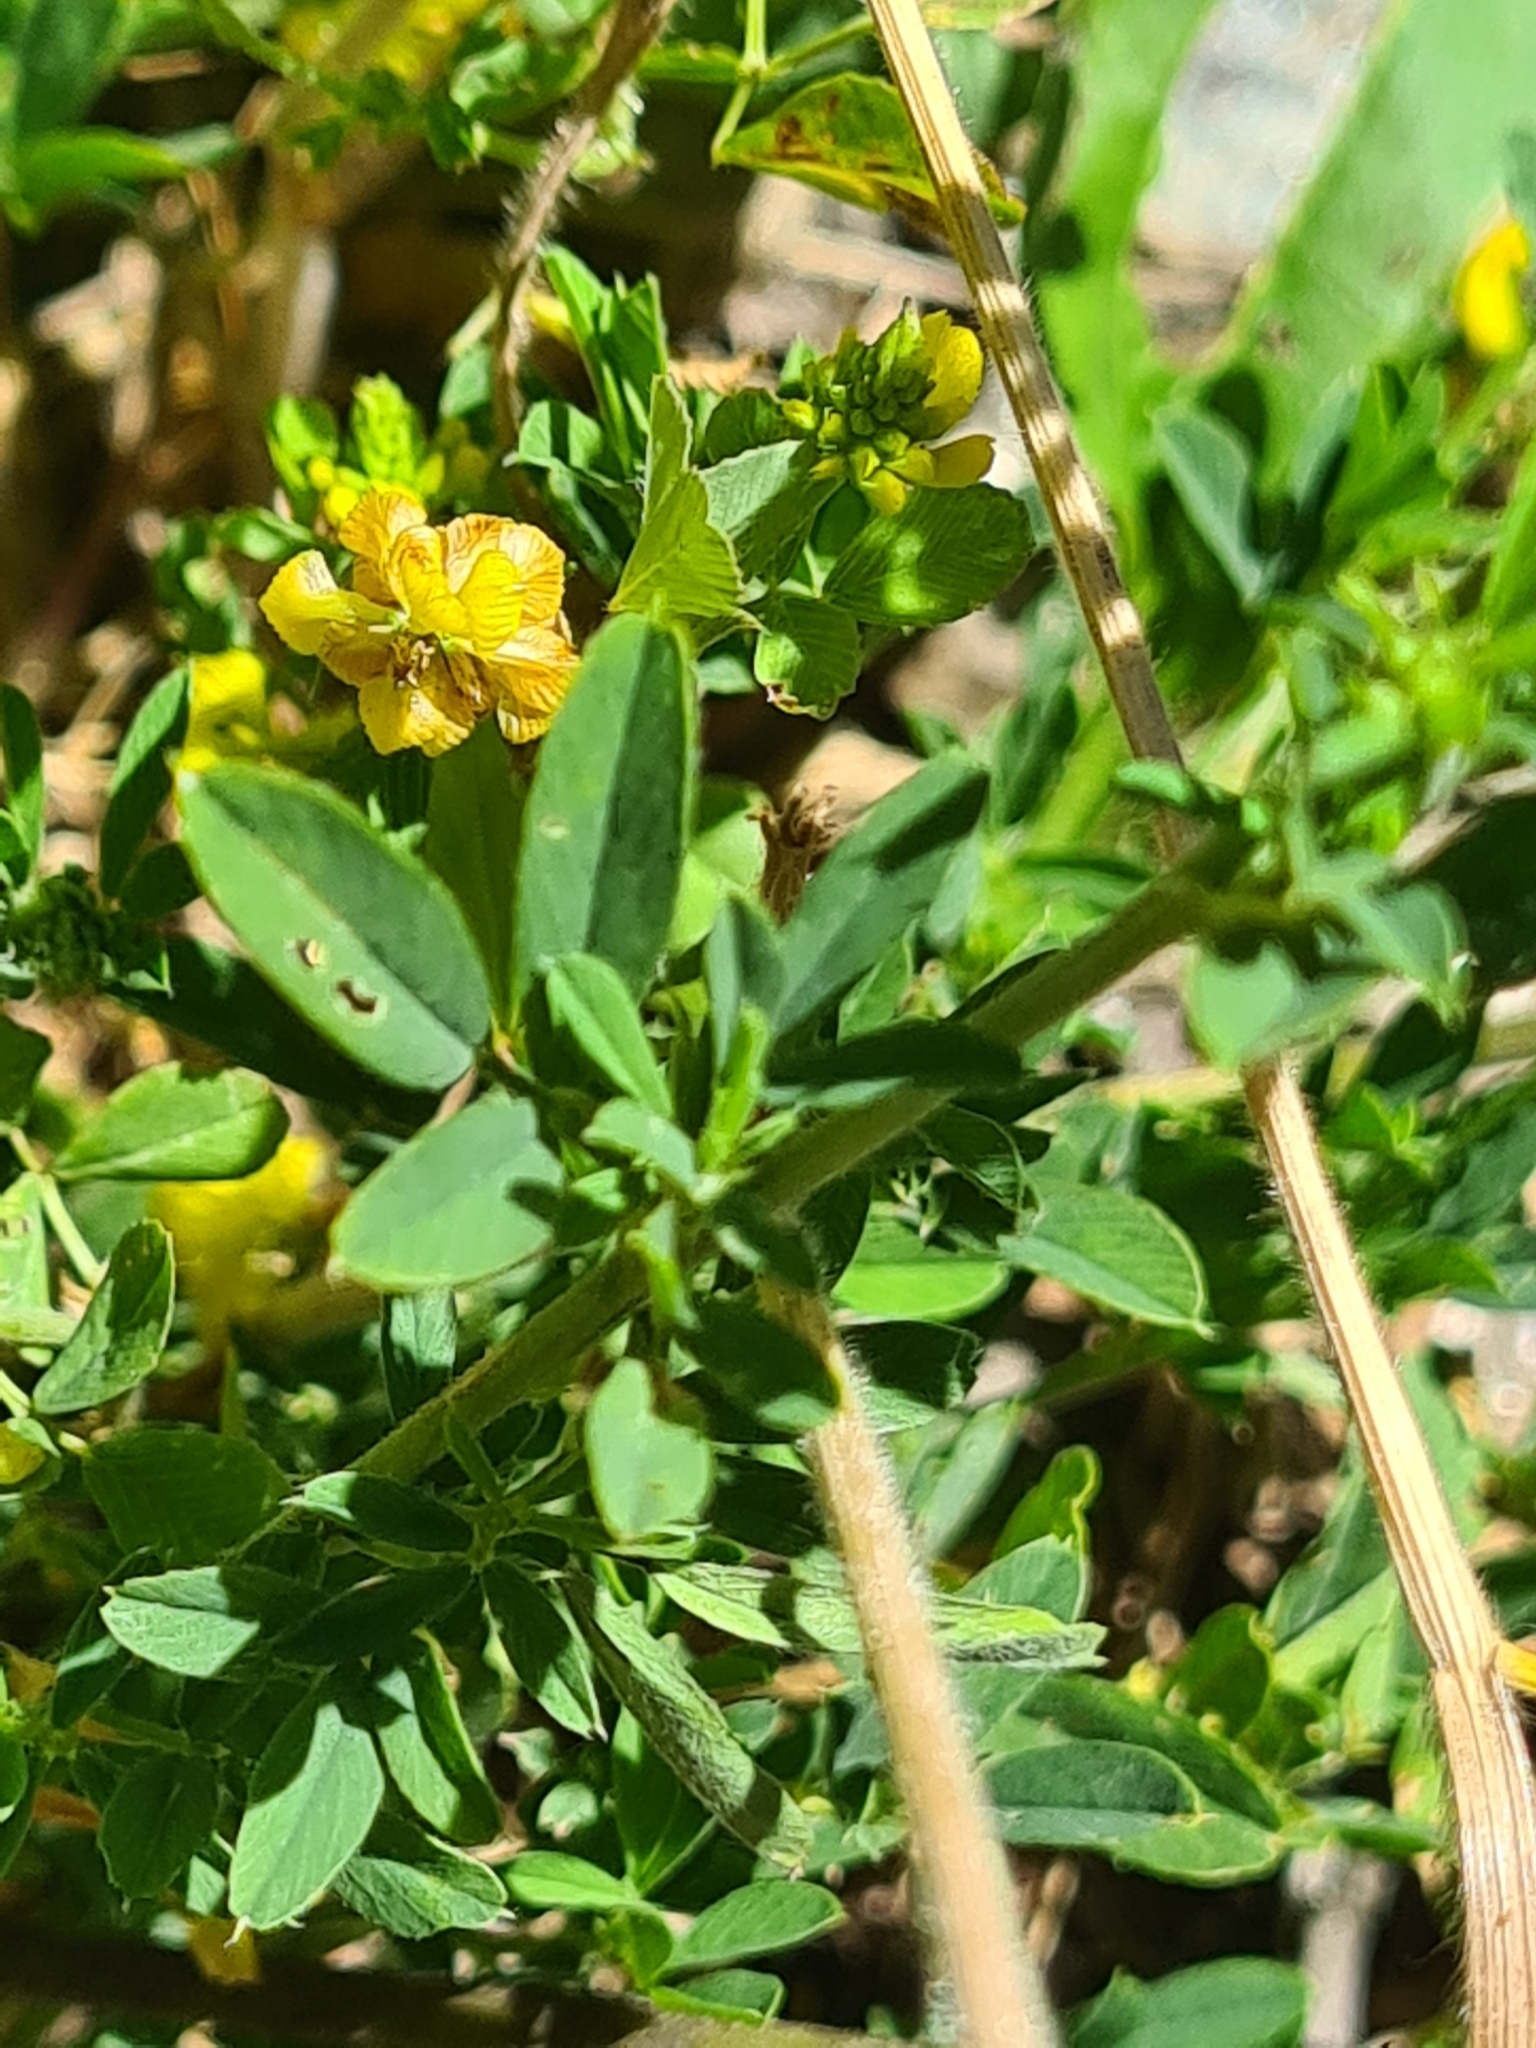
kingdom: Plantae
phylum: Tracheophyta
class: Magnoliopsida
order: Fabales
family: Fabaceae
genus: Medicago
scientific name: Medicago falcata
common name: Sickle medick
